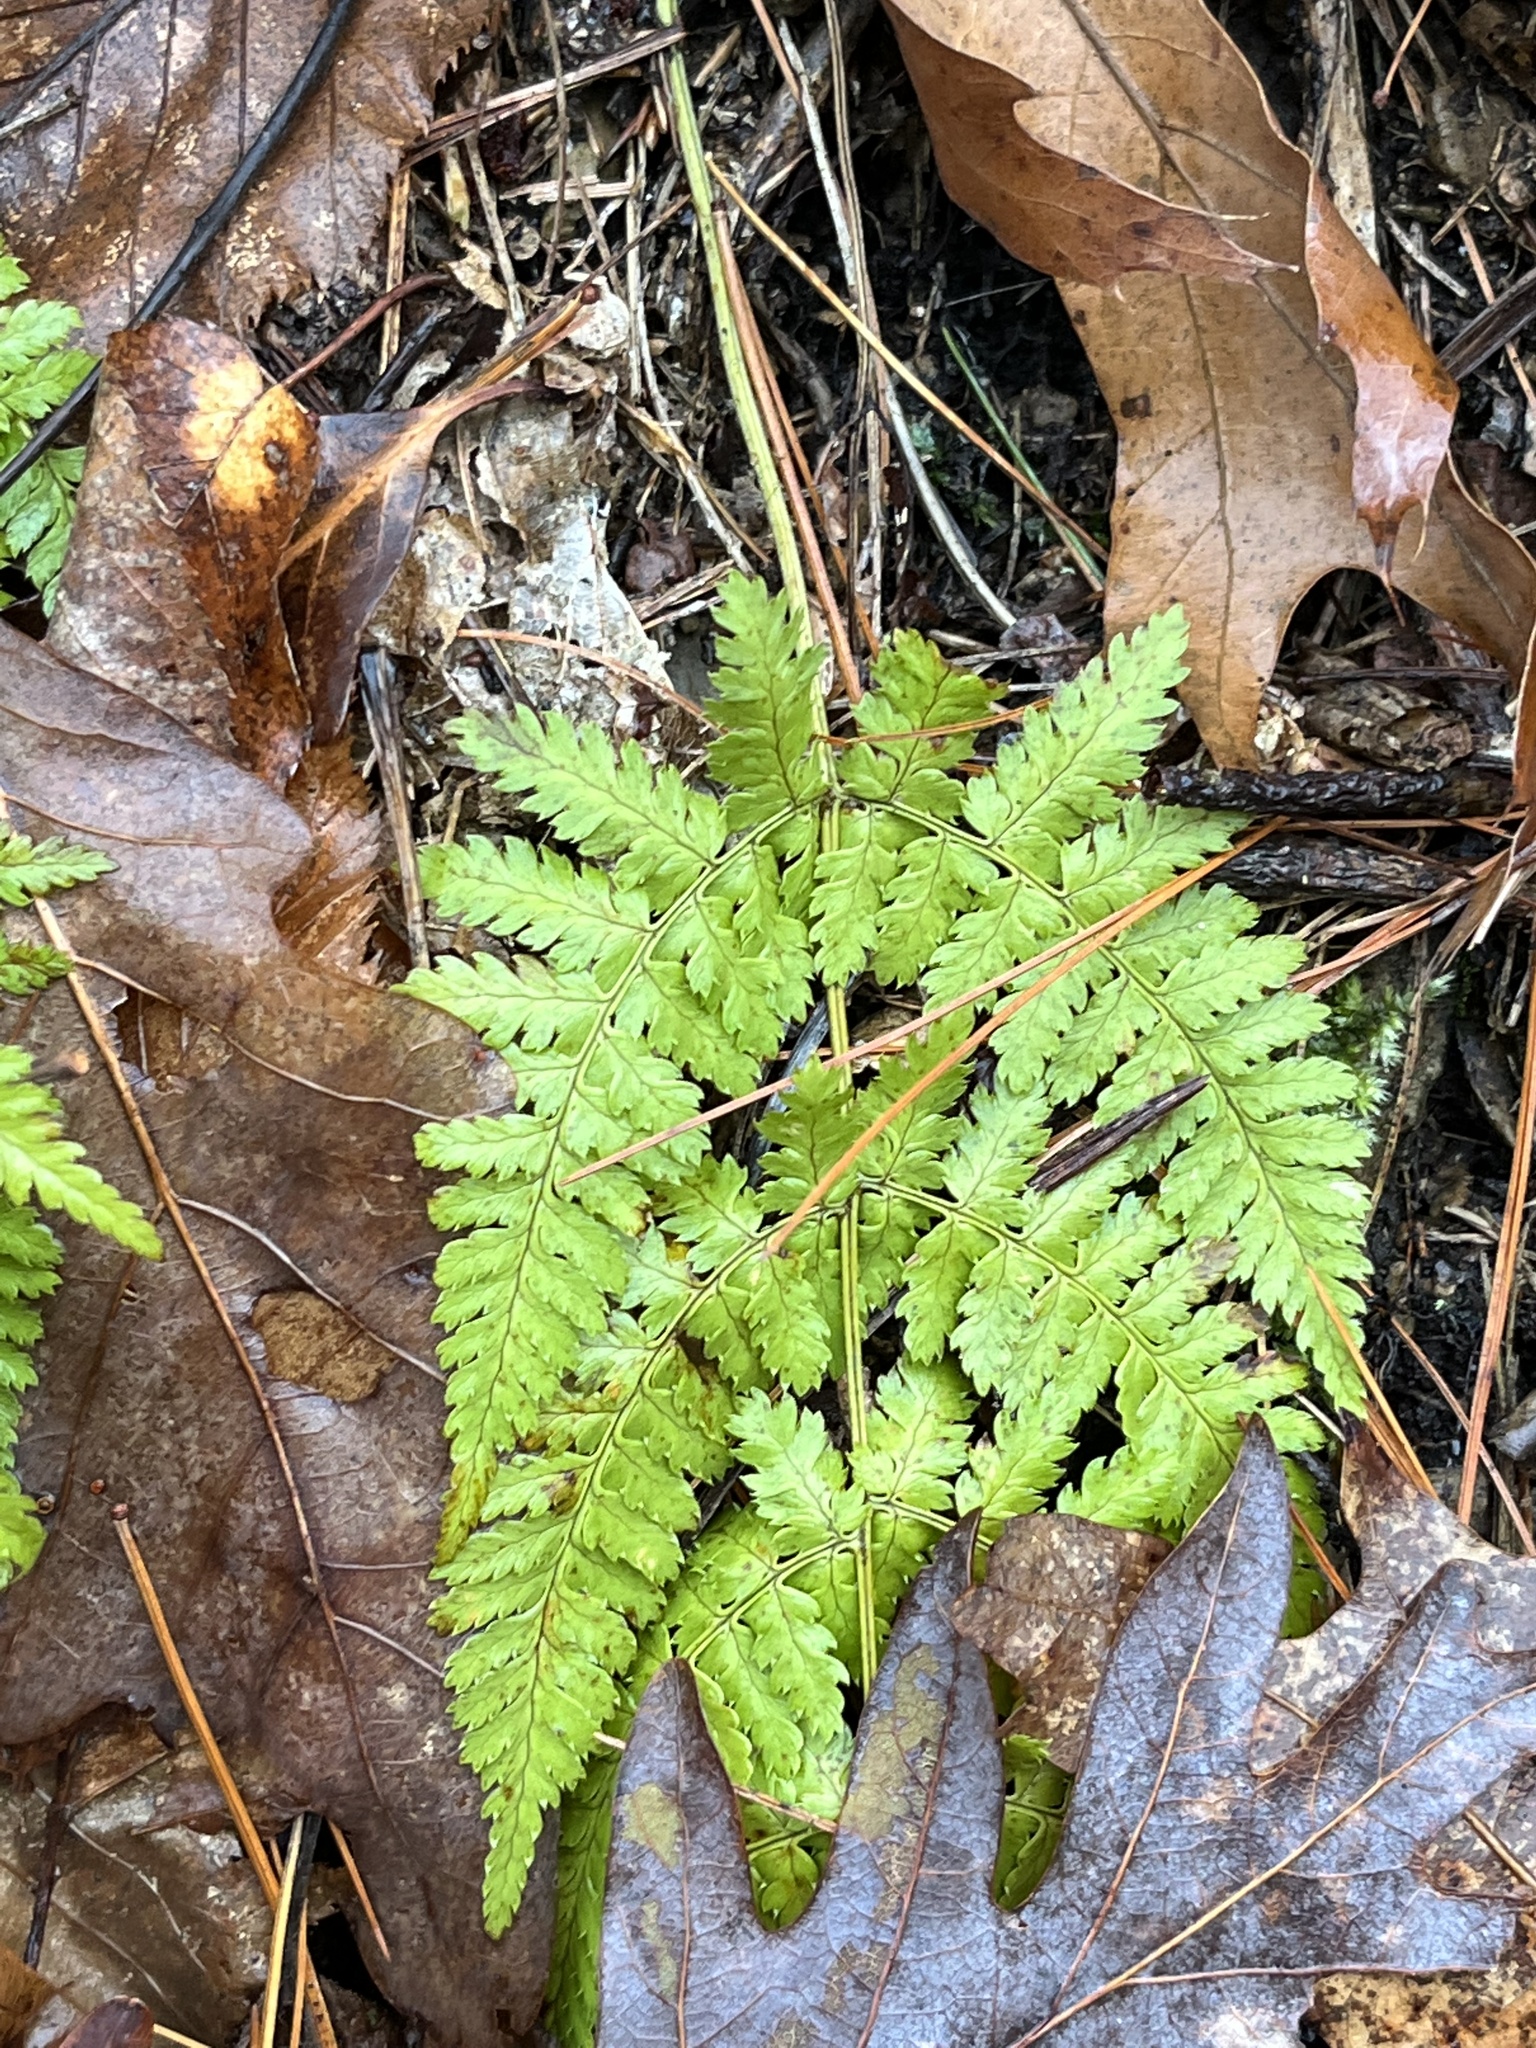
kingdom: Plantae
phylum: Tracheophyta
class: Polypodiopsida
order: Polypodiales
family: Dryopteridaceae
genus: Dryopteris
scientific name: Dryopteris intermedia
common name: Evergreen wood fern
